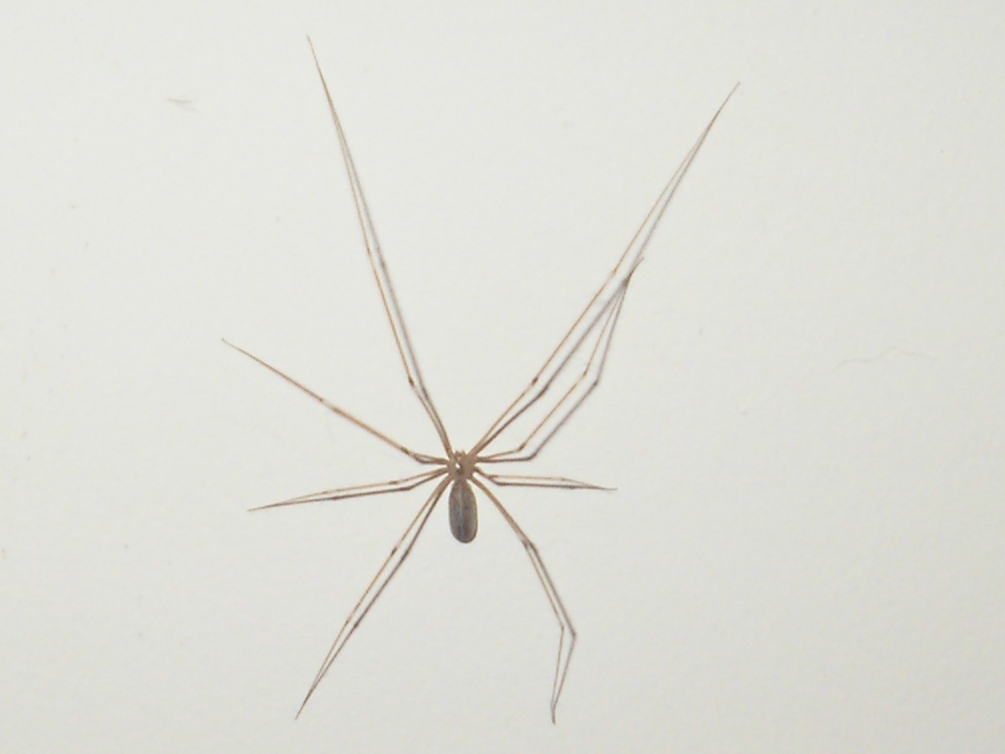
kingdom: Animalia
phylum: Arthropoda
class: Arachnida
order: Araneae
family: Pholcidae
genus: Pholcus
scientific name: Pholcus phalangioides
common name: Longbodied cellar spider
